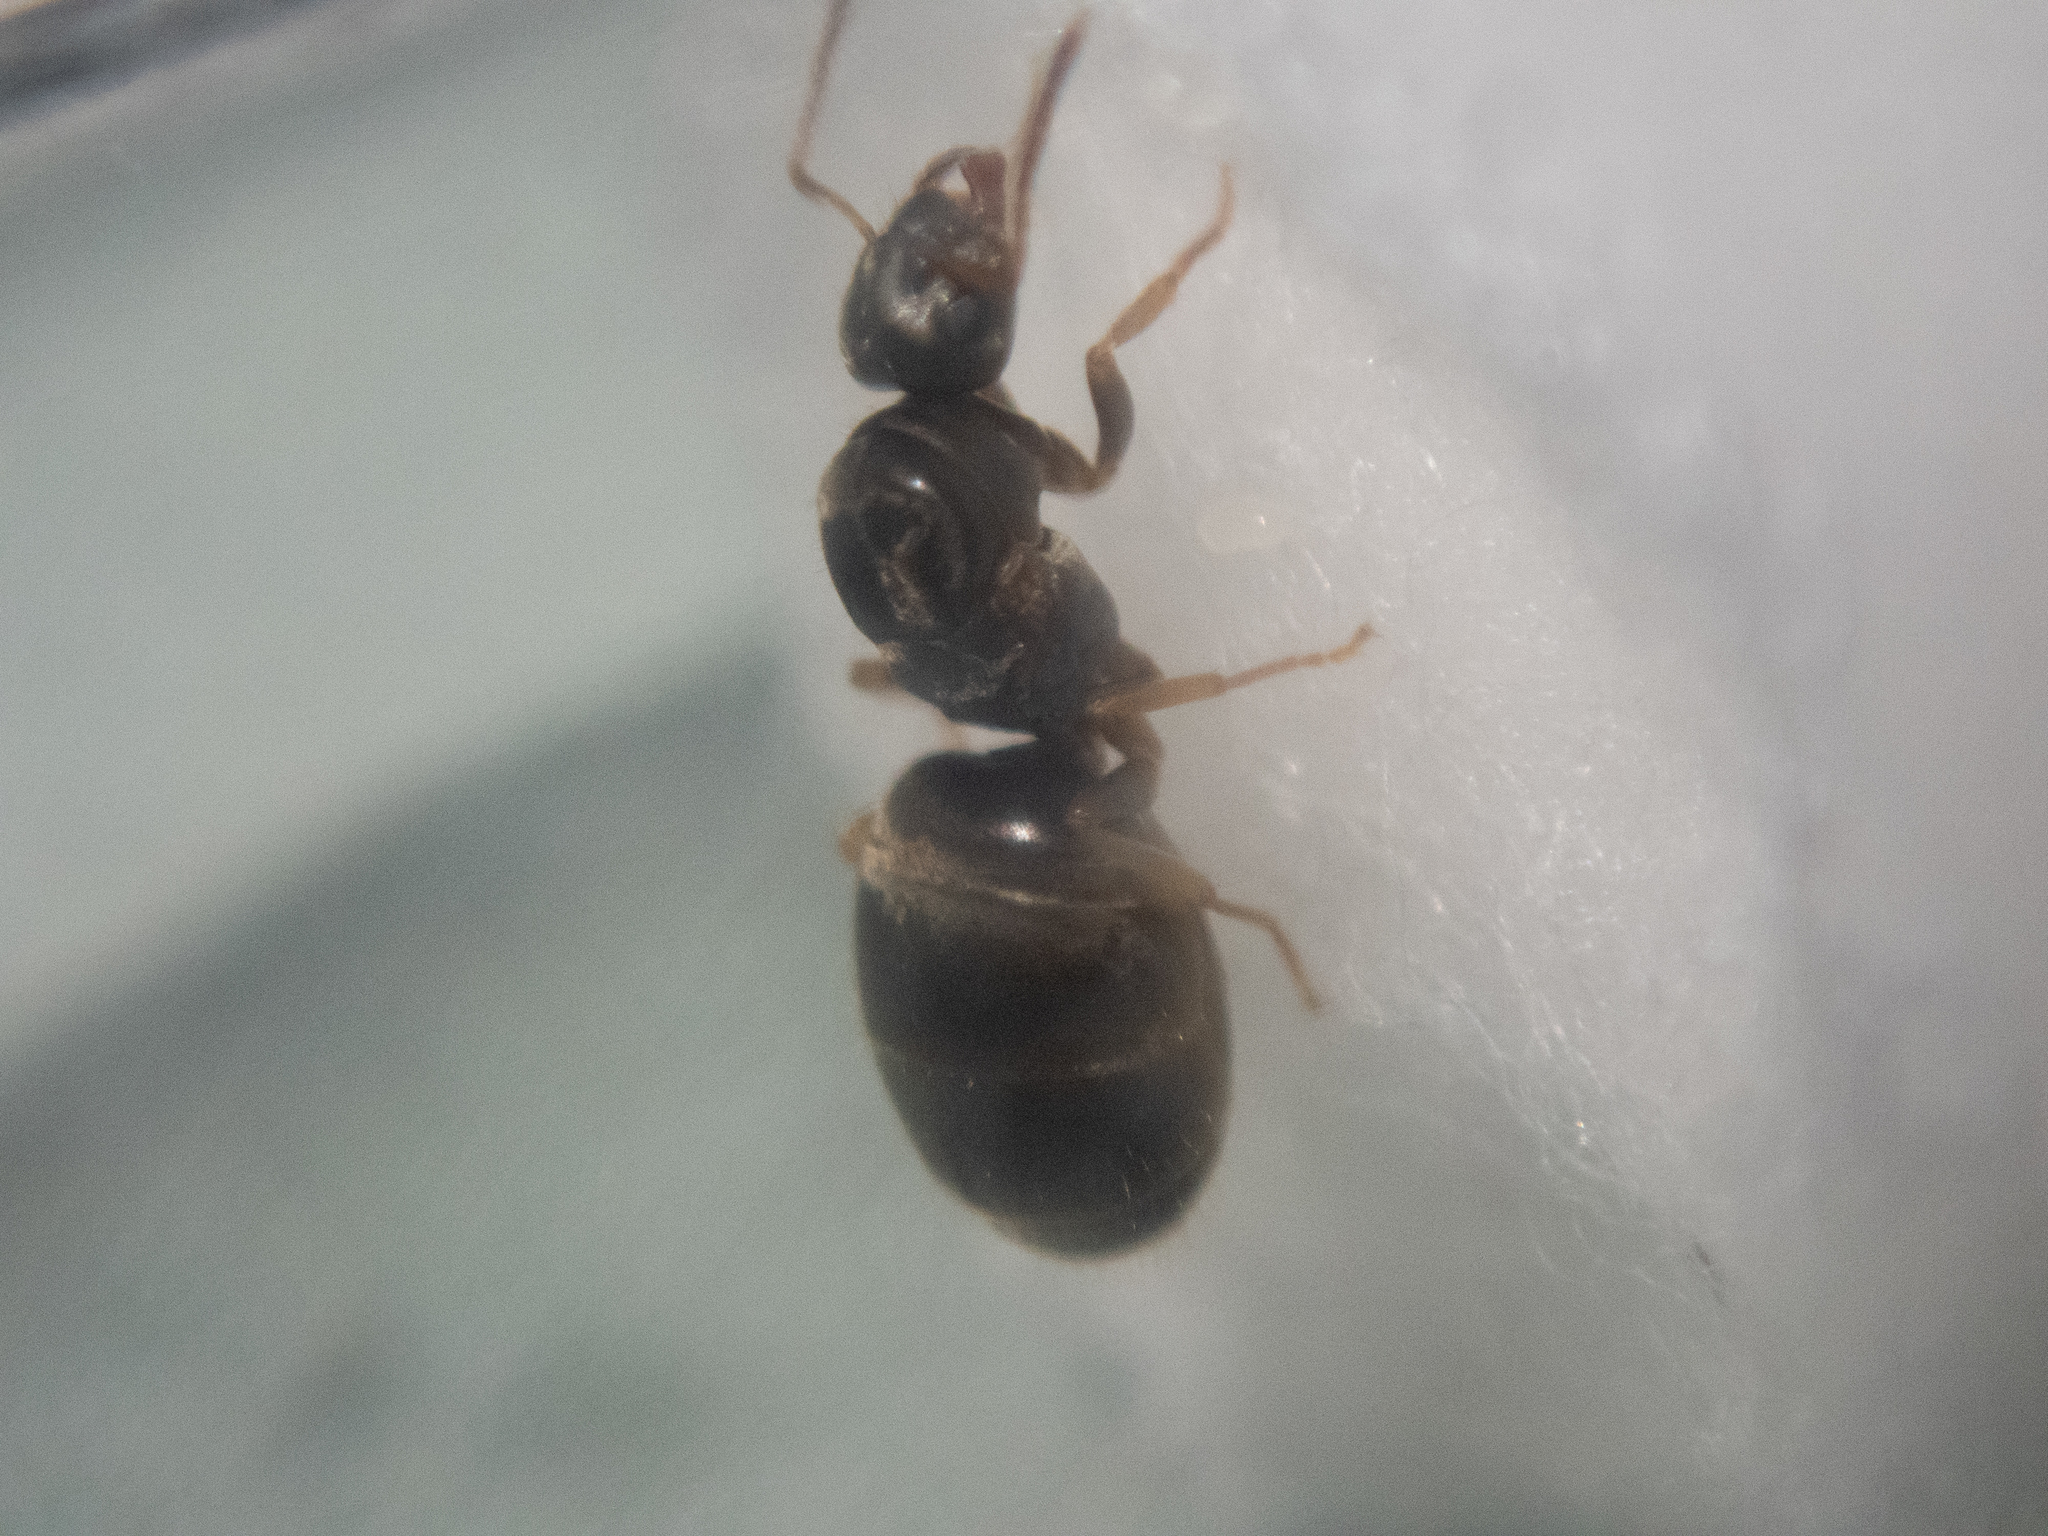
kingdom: Animalia
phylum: Arthropoda
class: Insecta
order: Hymenoptera
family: Formicidae
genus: Lasius
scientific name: Lasius americanus
